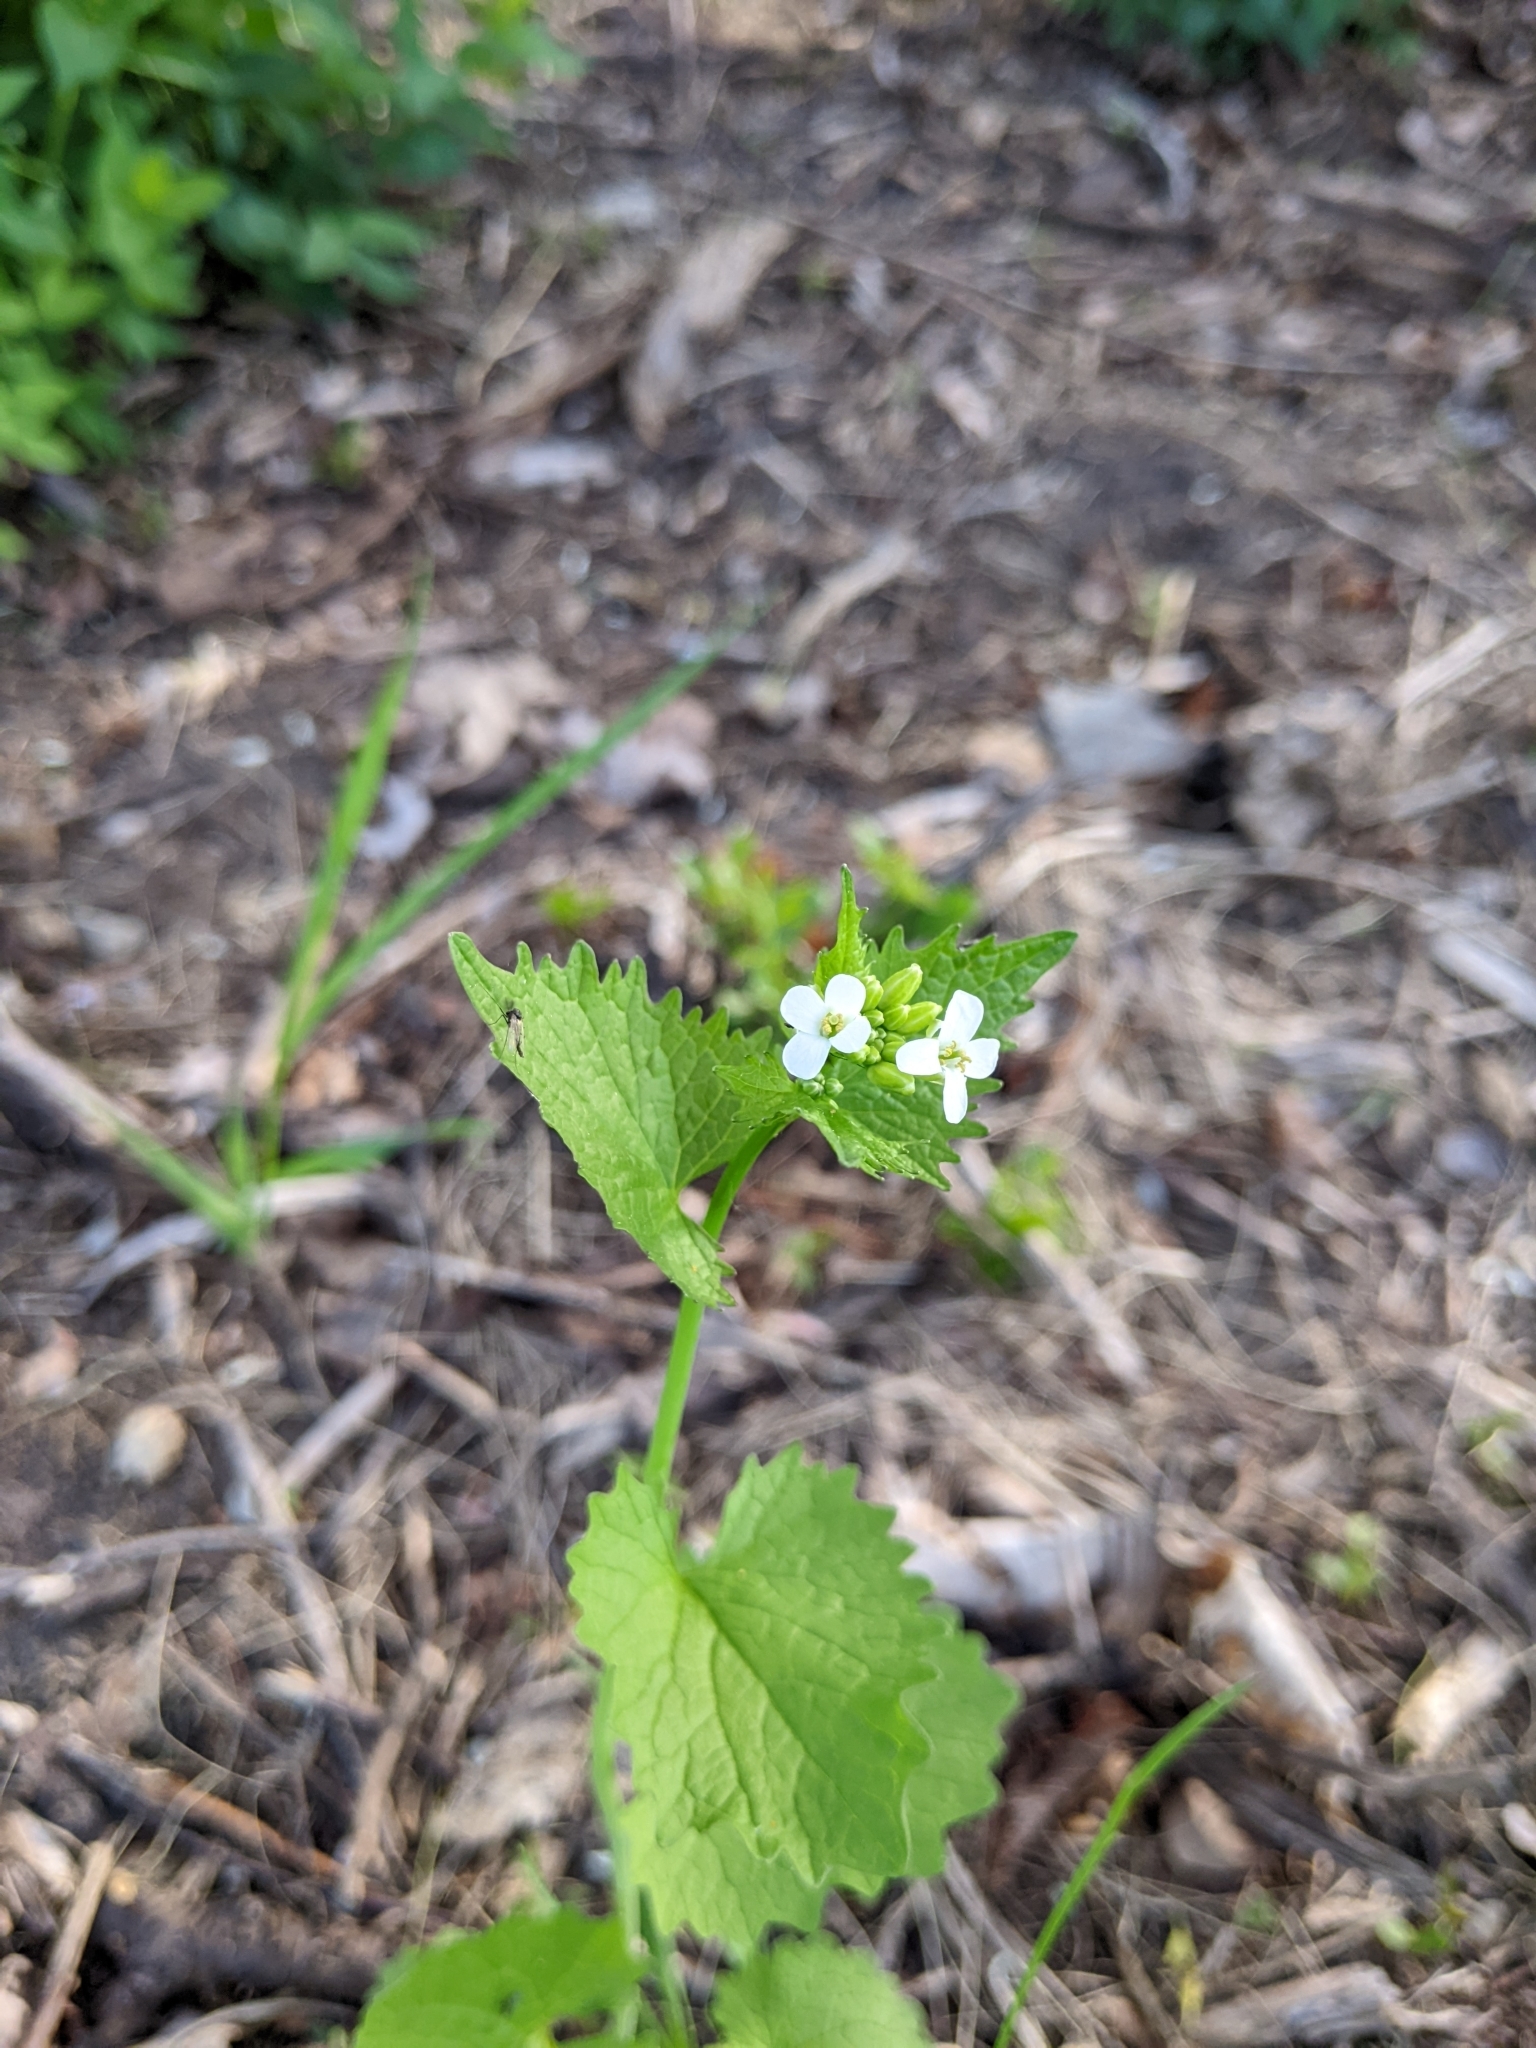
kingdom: Plantae
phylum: Tracheophyta
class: Magnoliopsida
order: Brassicales
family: Brassicaceae
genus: Alliaria
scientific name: Alliaria petiolata
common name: Garlic mustard
